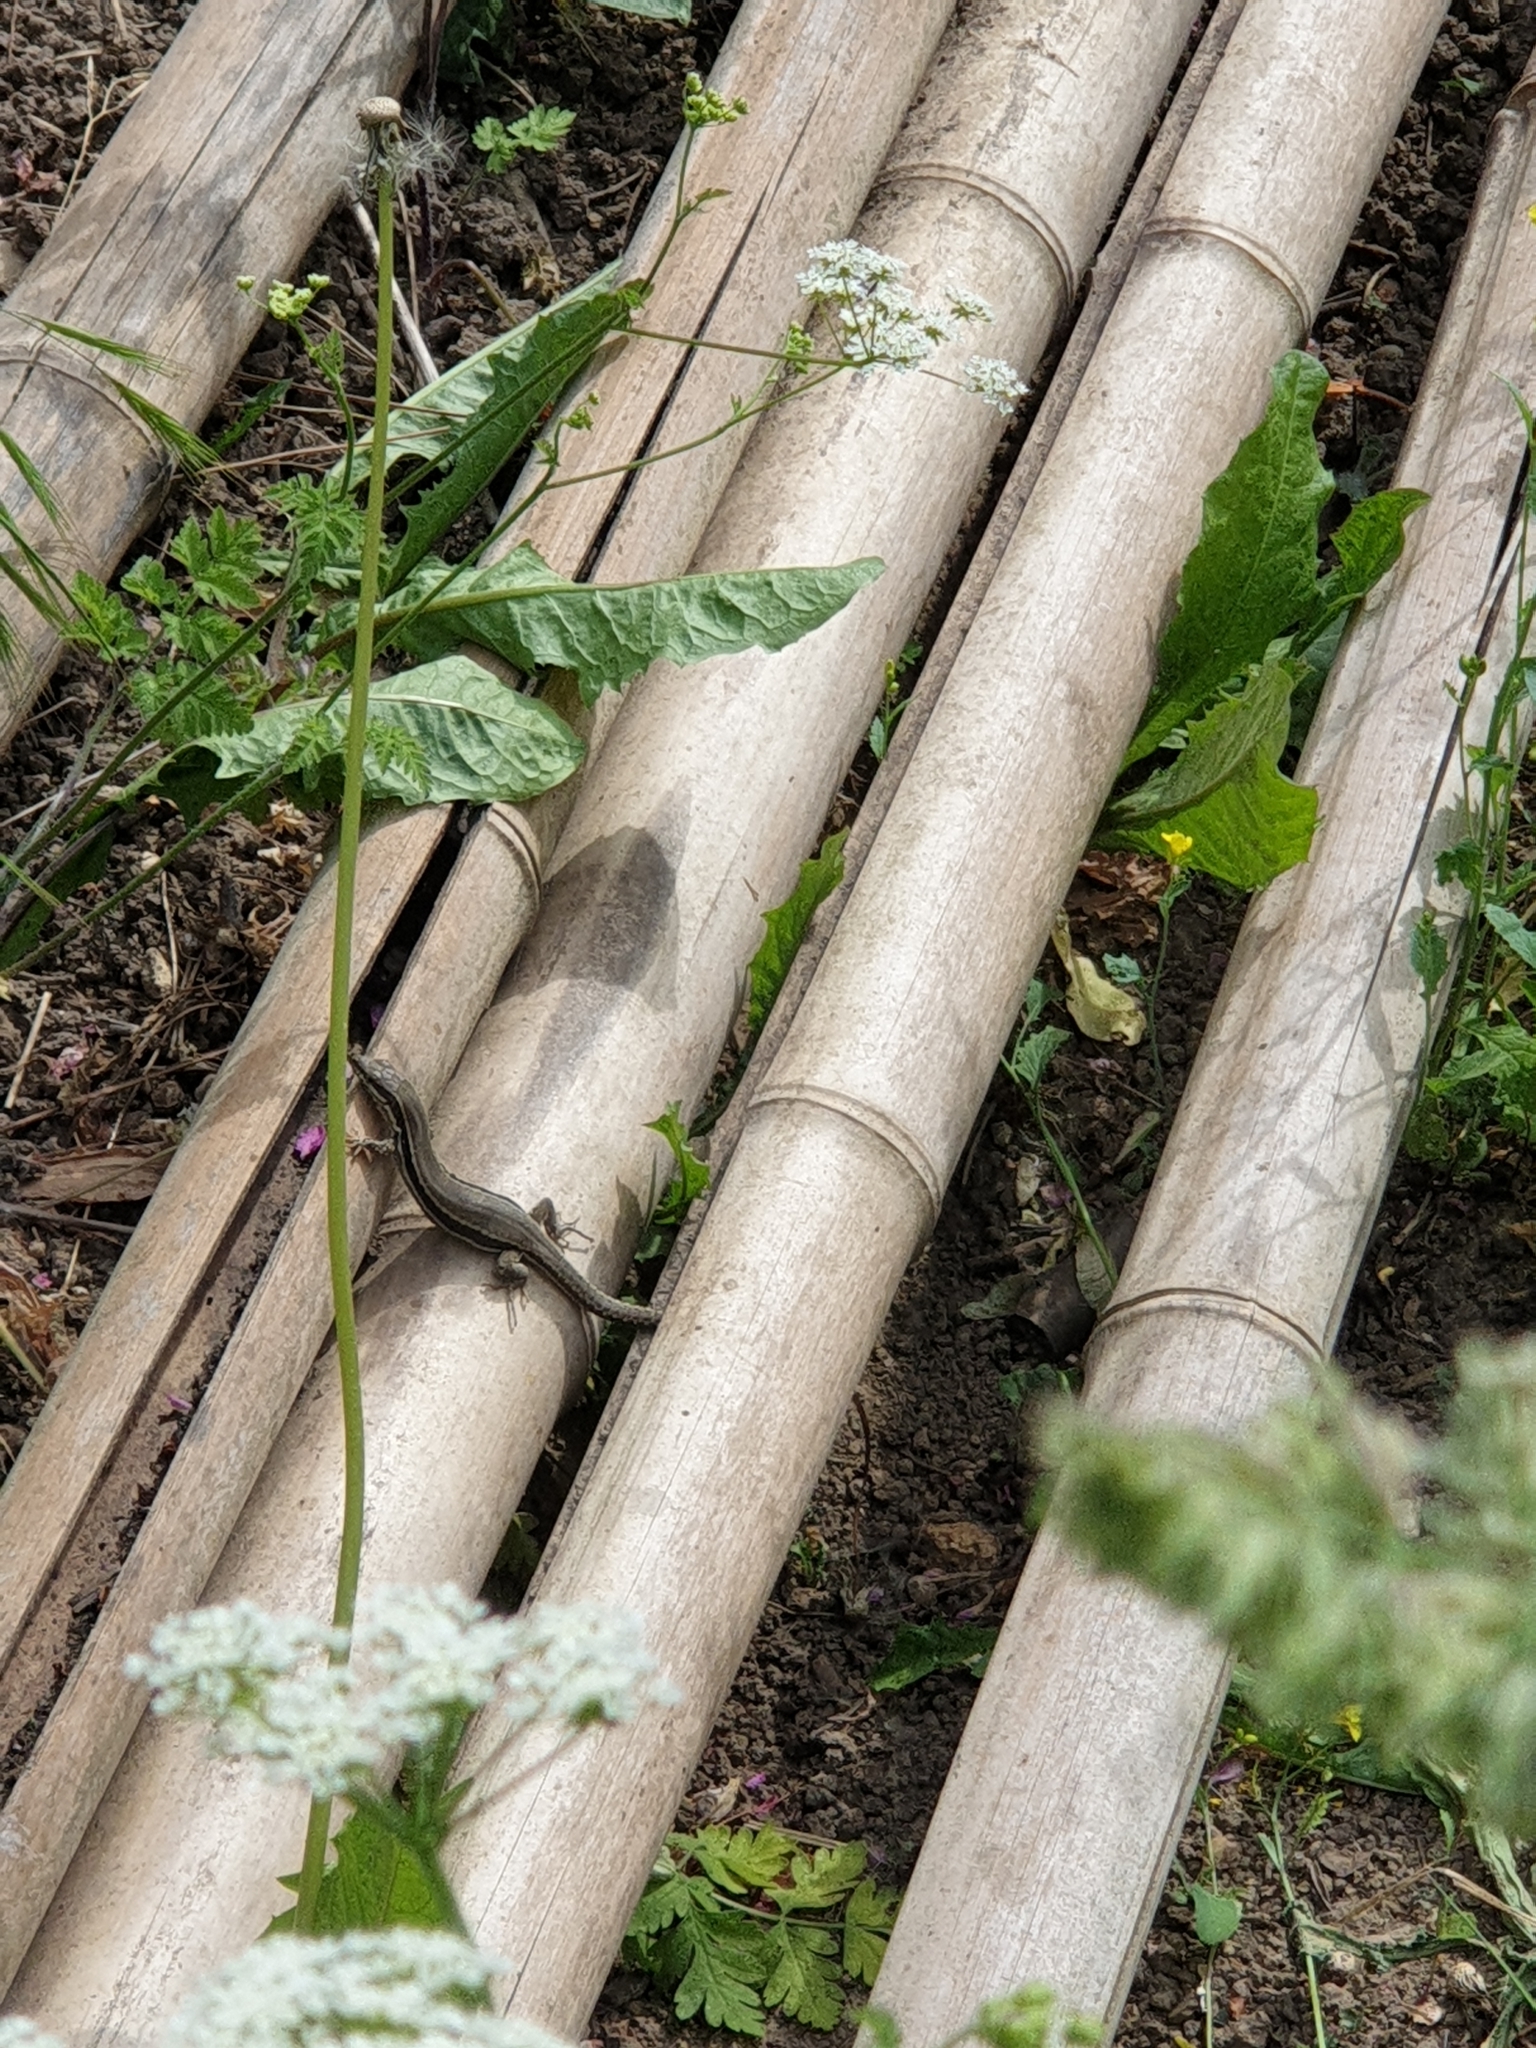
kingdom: Animalia
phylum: Chordata
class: Squamata
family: Lacertidae
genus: Podarcis
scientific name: Podarcis muralis
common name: Common wall lizard
